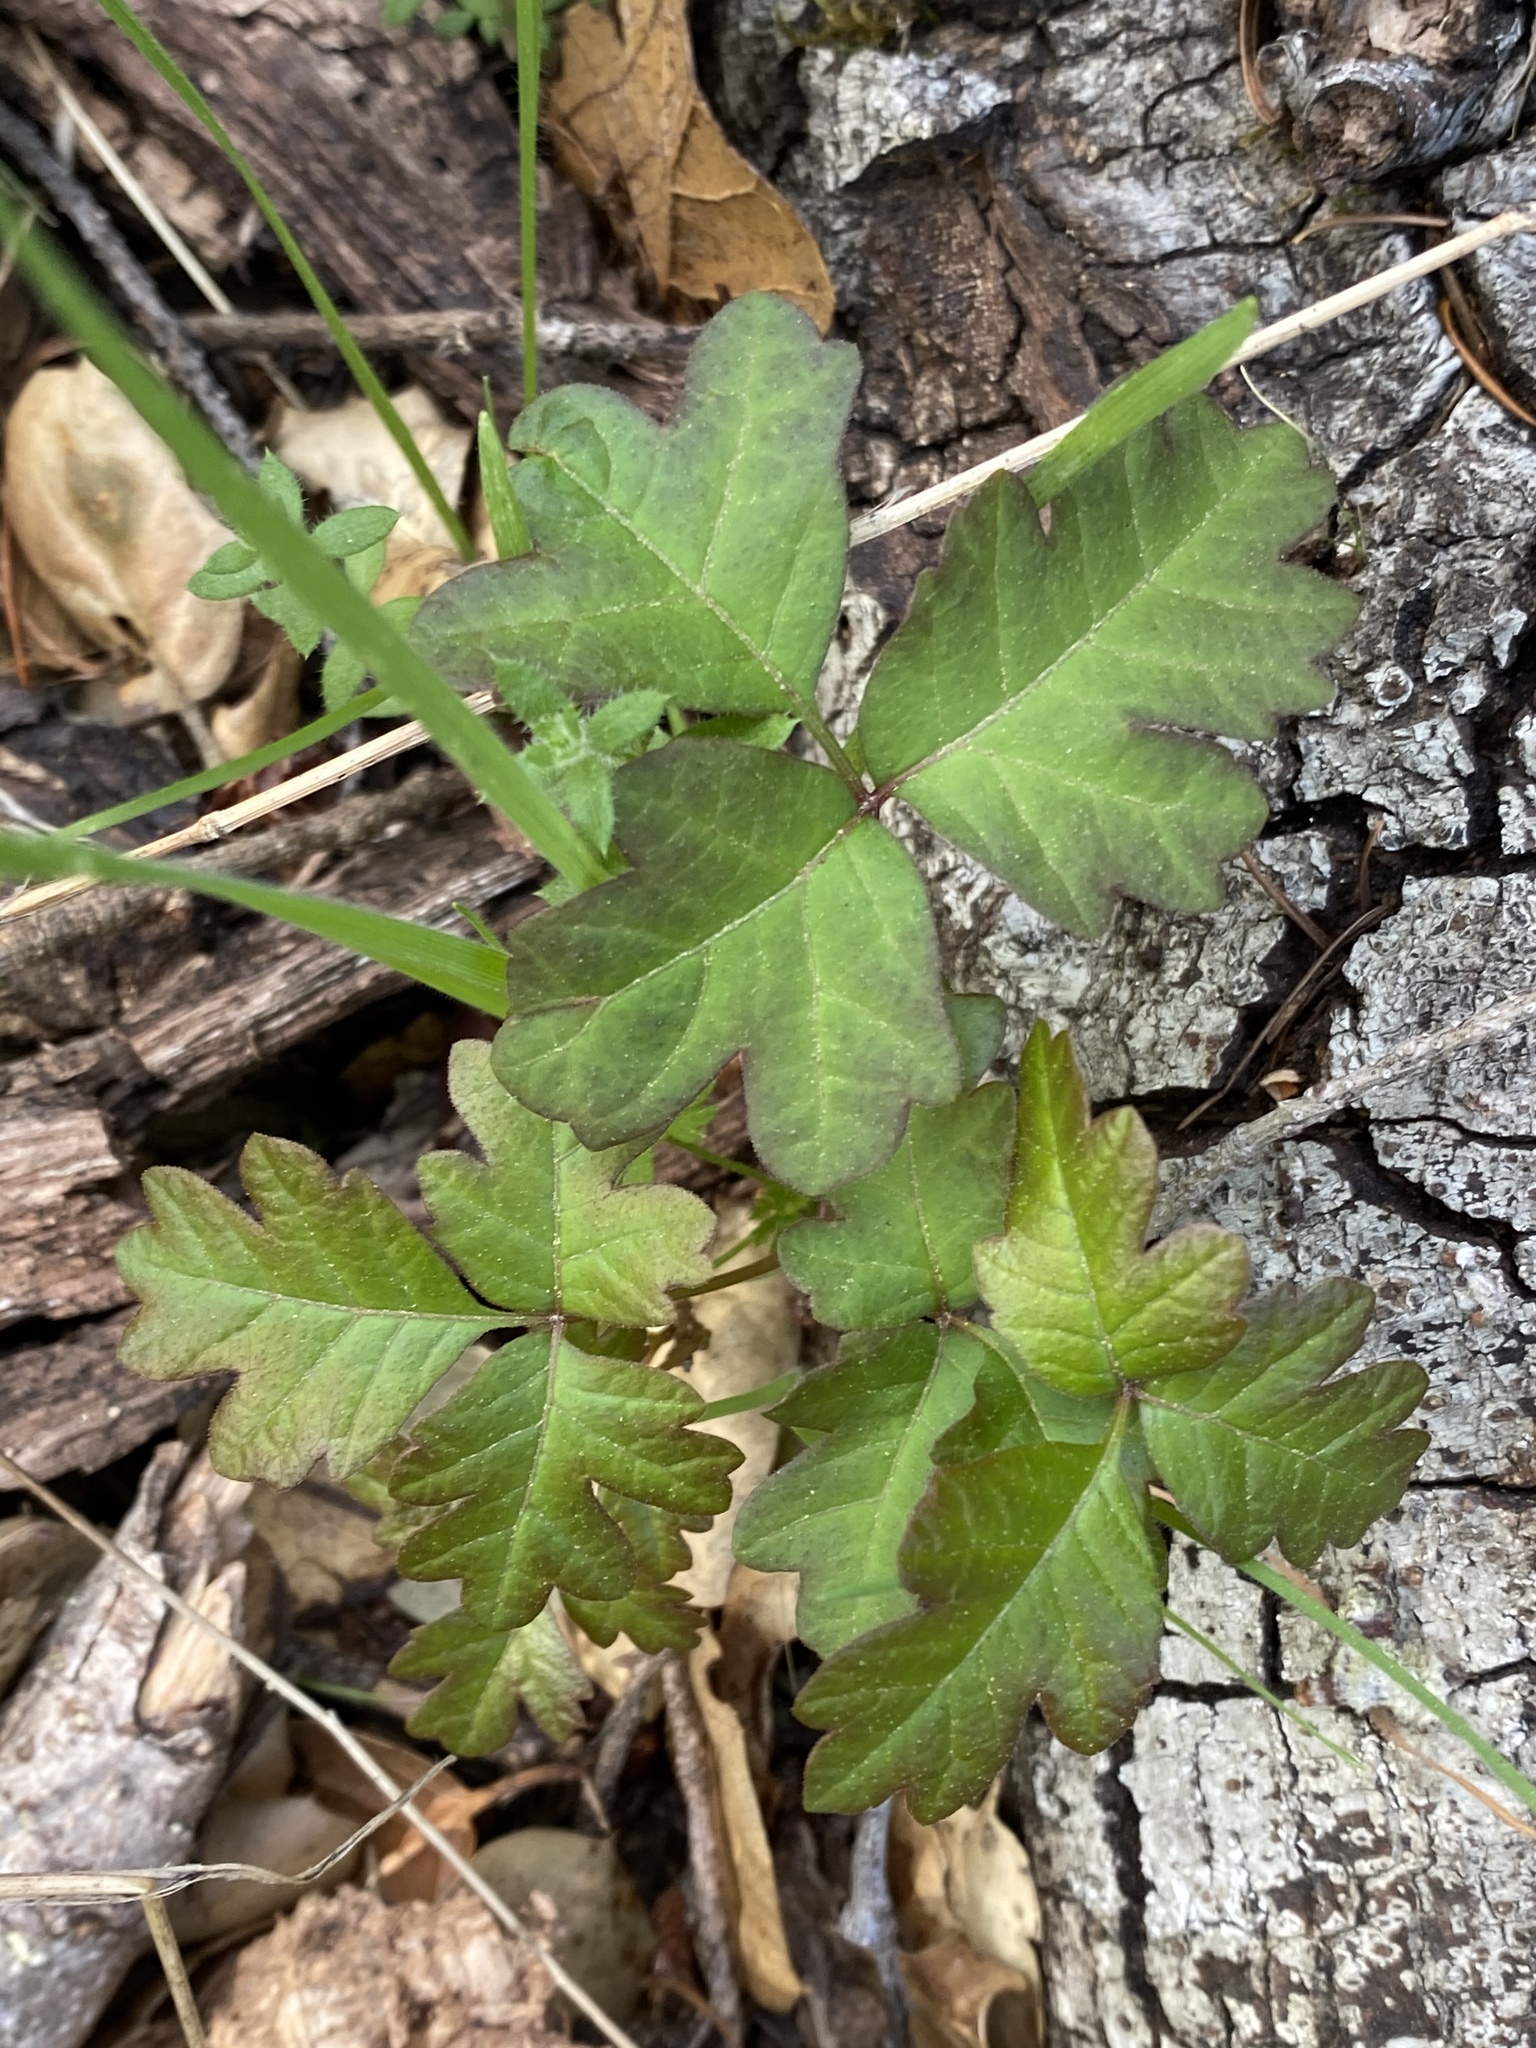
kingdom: Plantae
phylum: Tracheophyta
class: Magnoliopsida
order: Sapindales
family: Anacardiaceae
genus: Toxicodendron
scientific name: Toxicodendron diversilobum
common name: Pacific poison-oak
